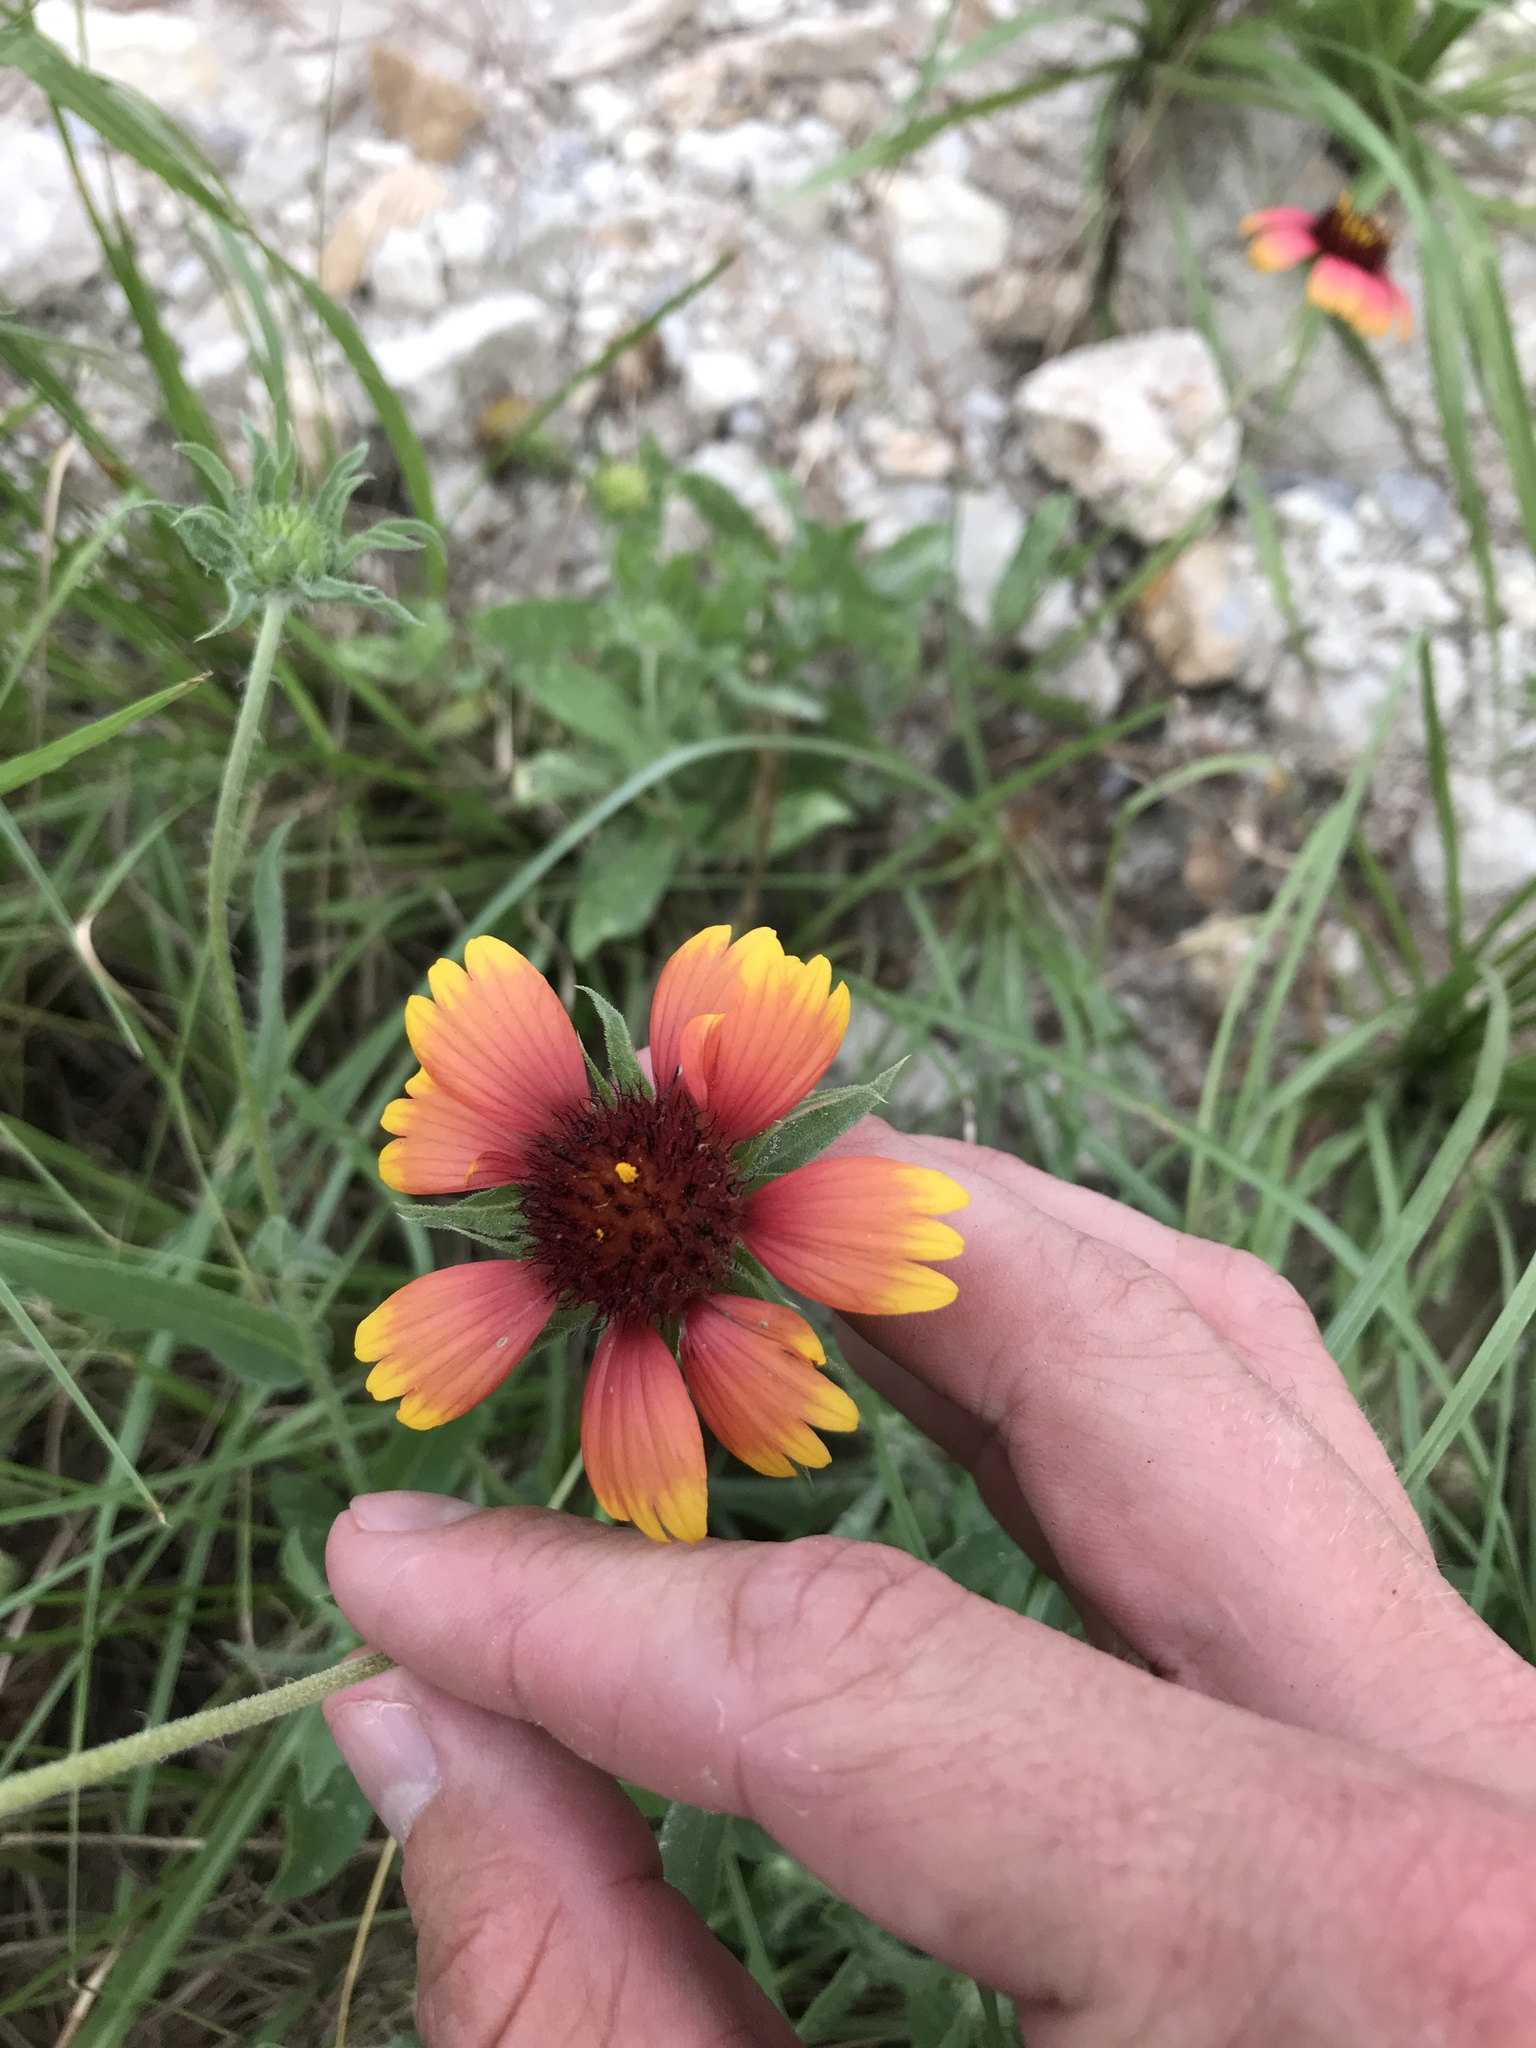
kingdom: Plantae
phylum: Tracheophyta
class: Magnoliopsida
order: Asterales
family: Asteraceae
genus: Gaillardia
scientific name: Gaillardia pulchella
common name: Firewheel
